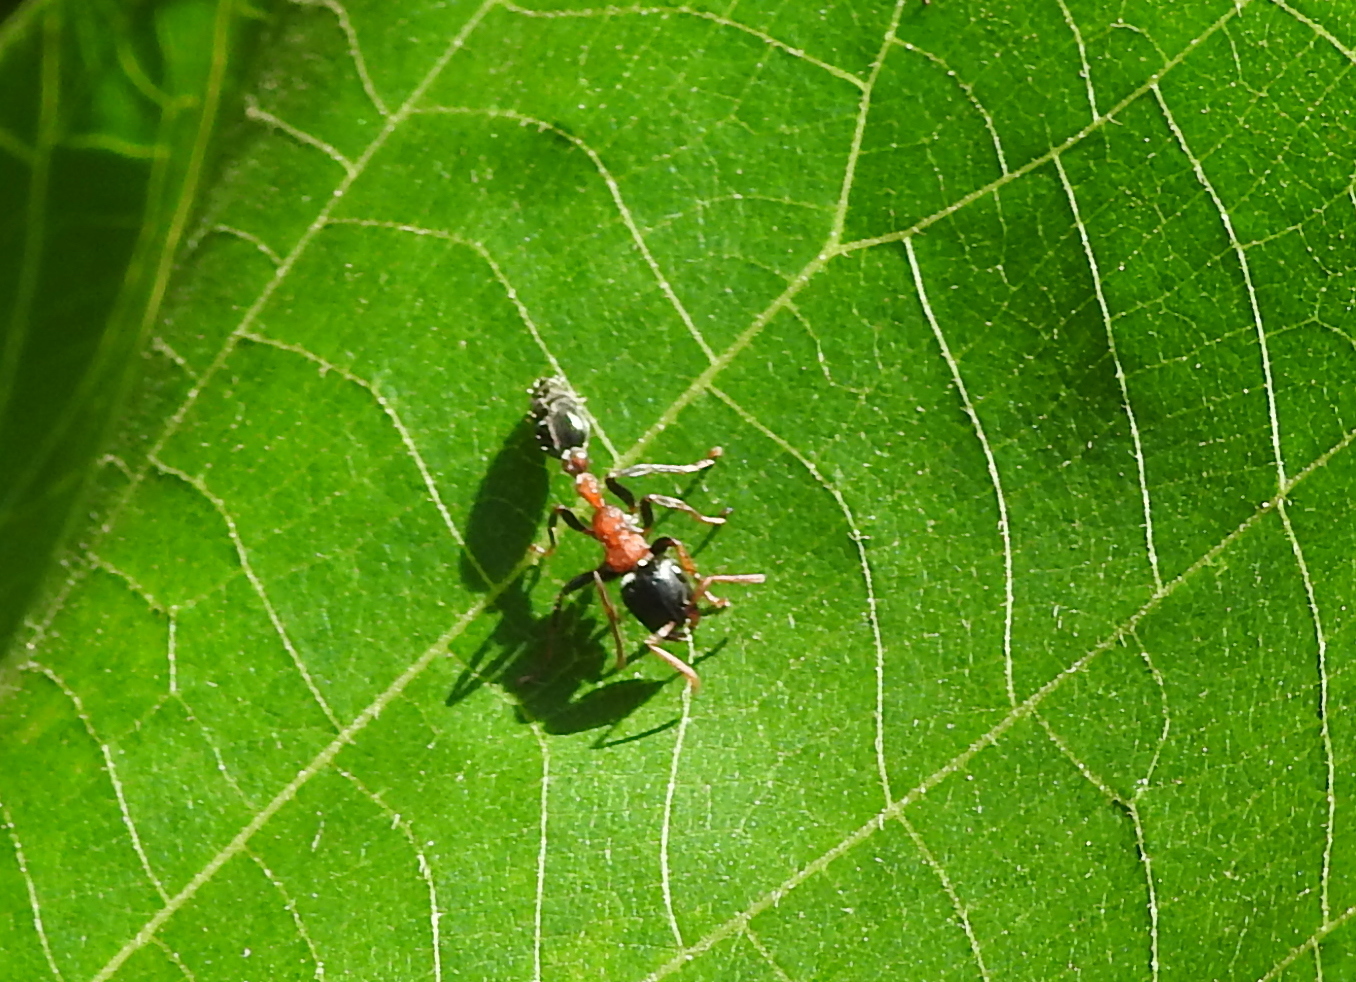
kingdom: Animalia
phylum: Arthropoda
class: Insecta
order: Hymenoptera
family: Formicidae
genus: Tetraponera
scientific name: Tetraponera rufonigra
